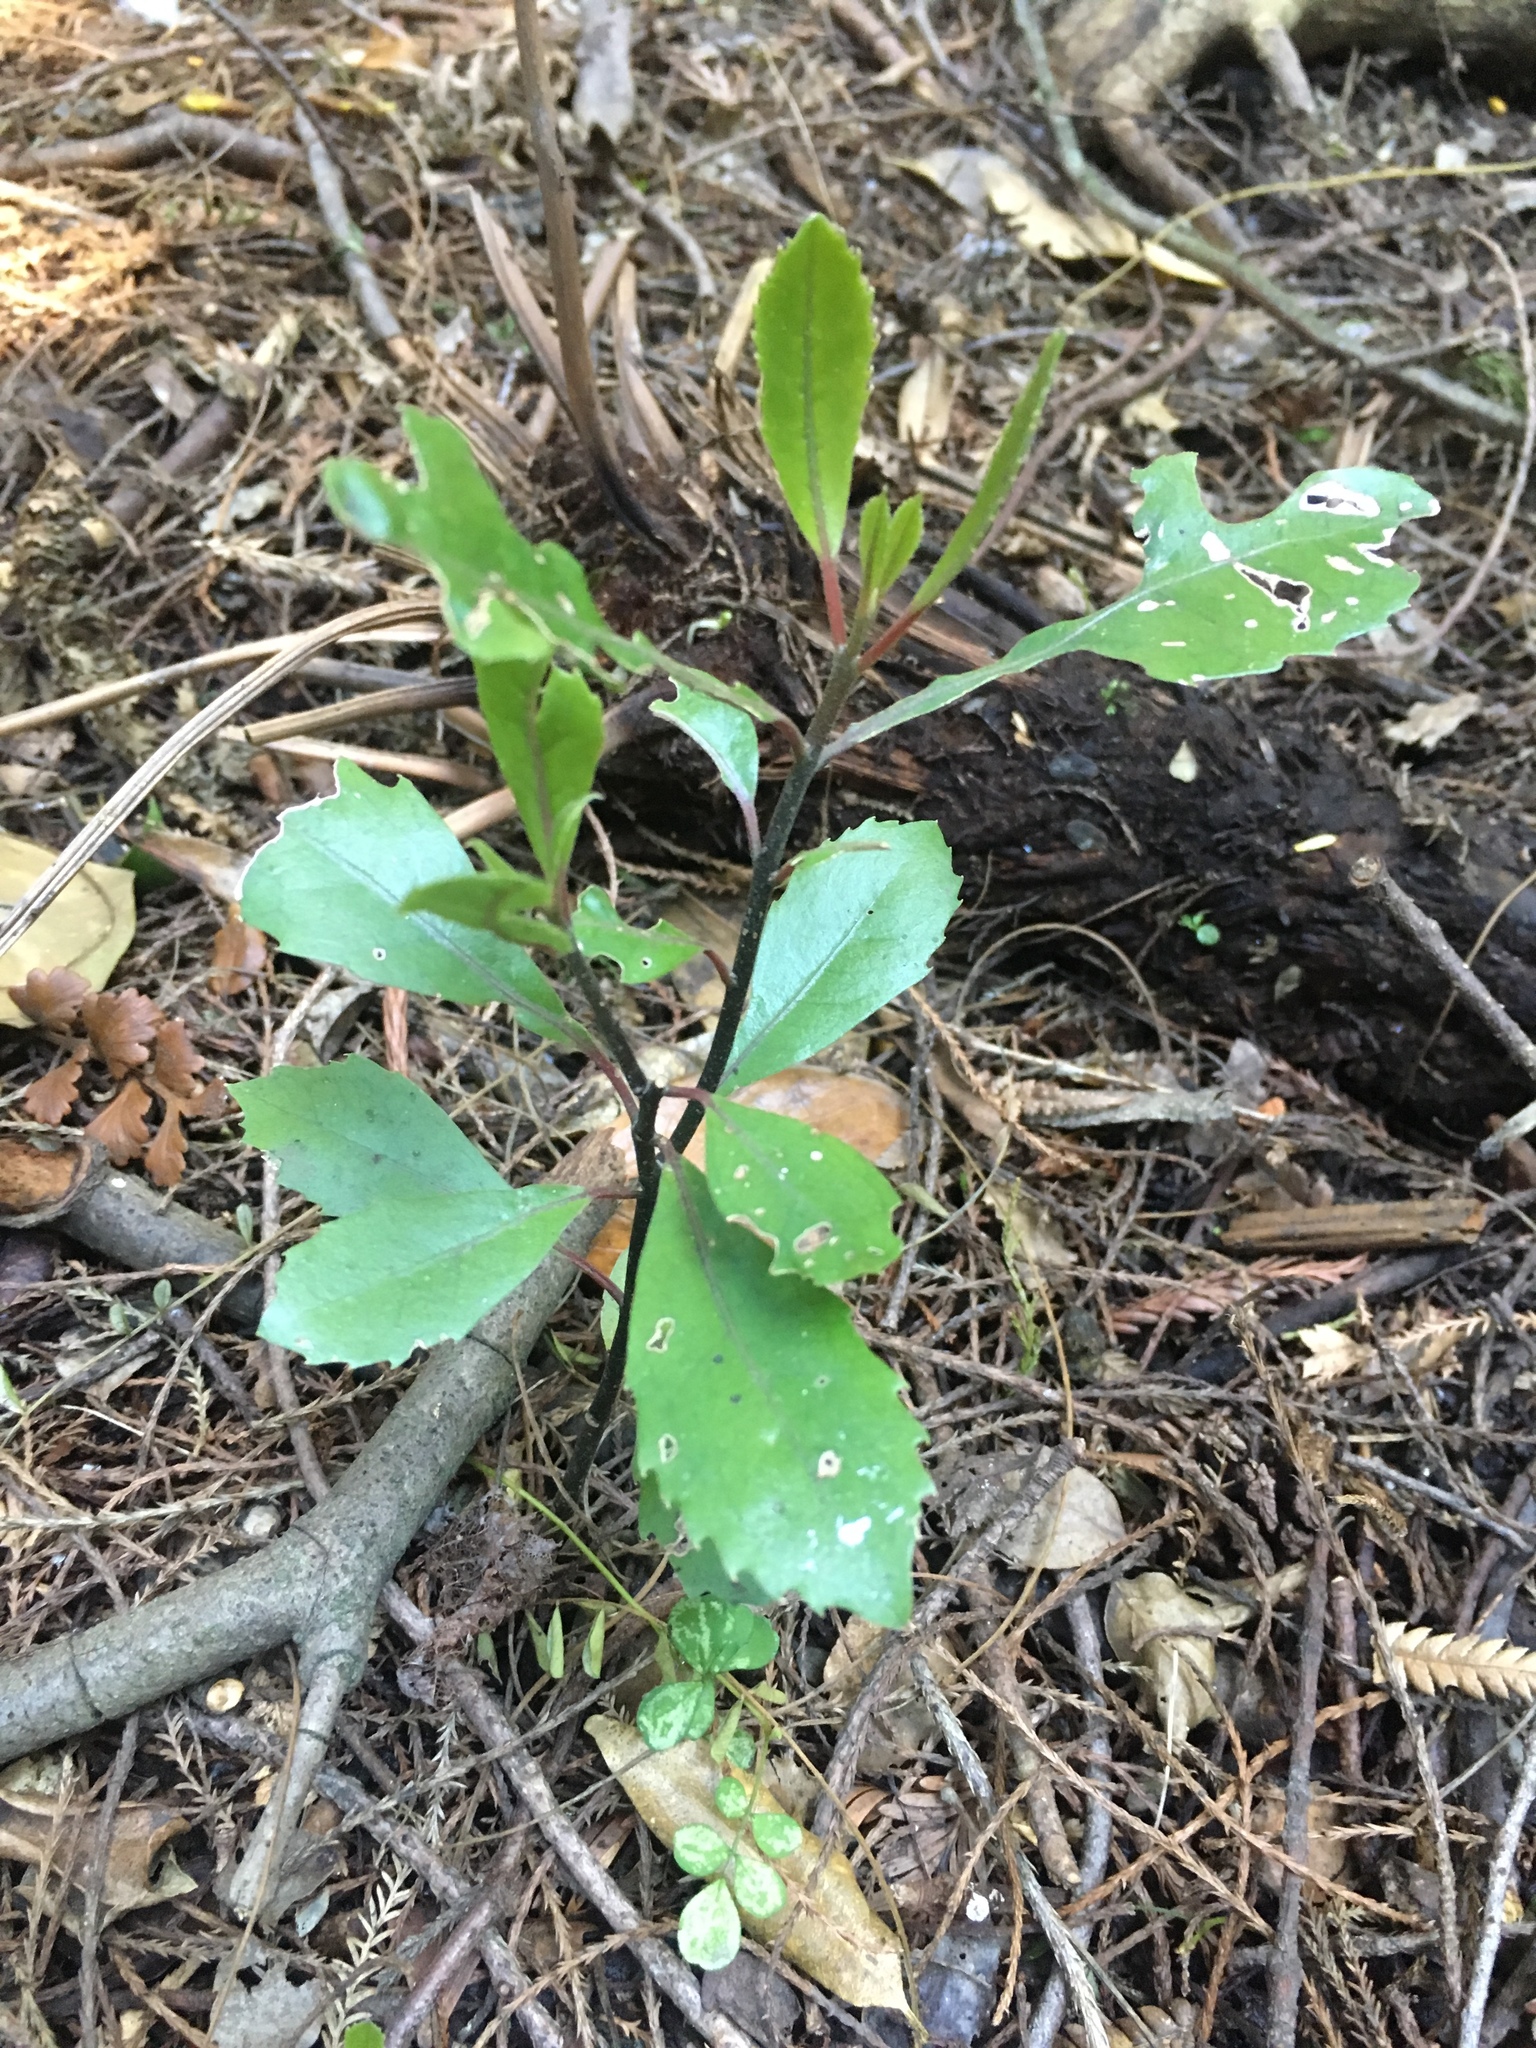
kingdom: Plantae
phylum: Tracheophyta
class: Magnoliopsida
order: Laurales
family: Monimiaceae
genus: Hedycarya
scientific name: Hedycarya arborea
